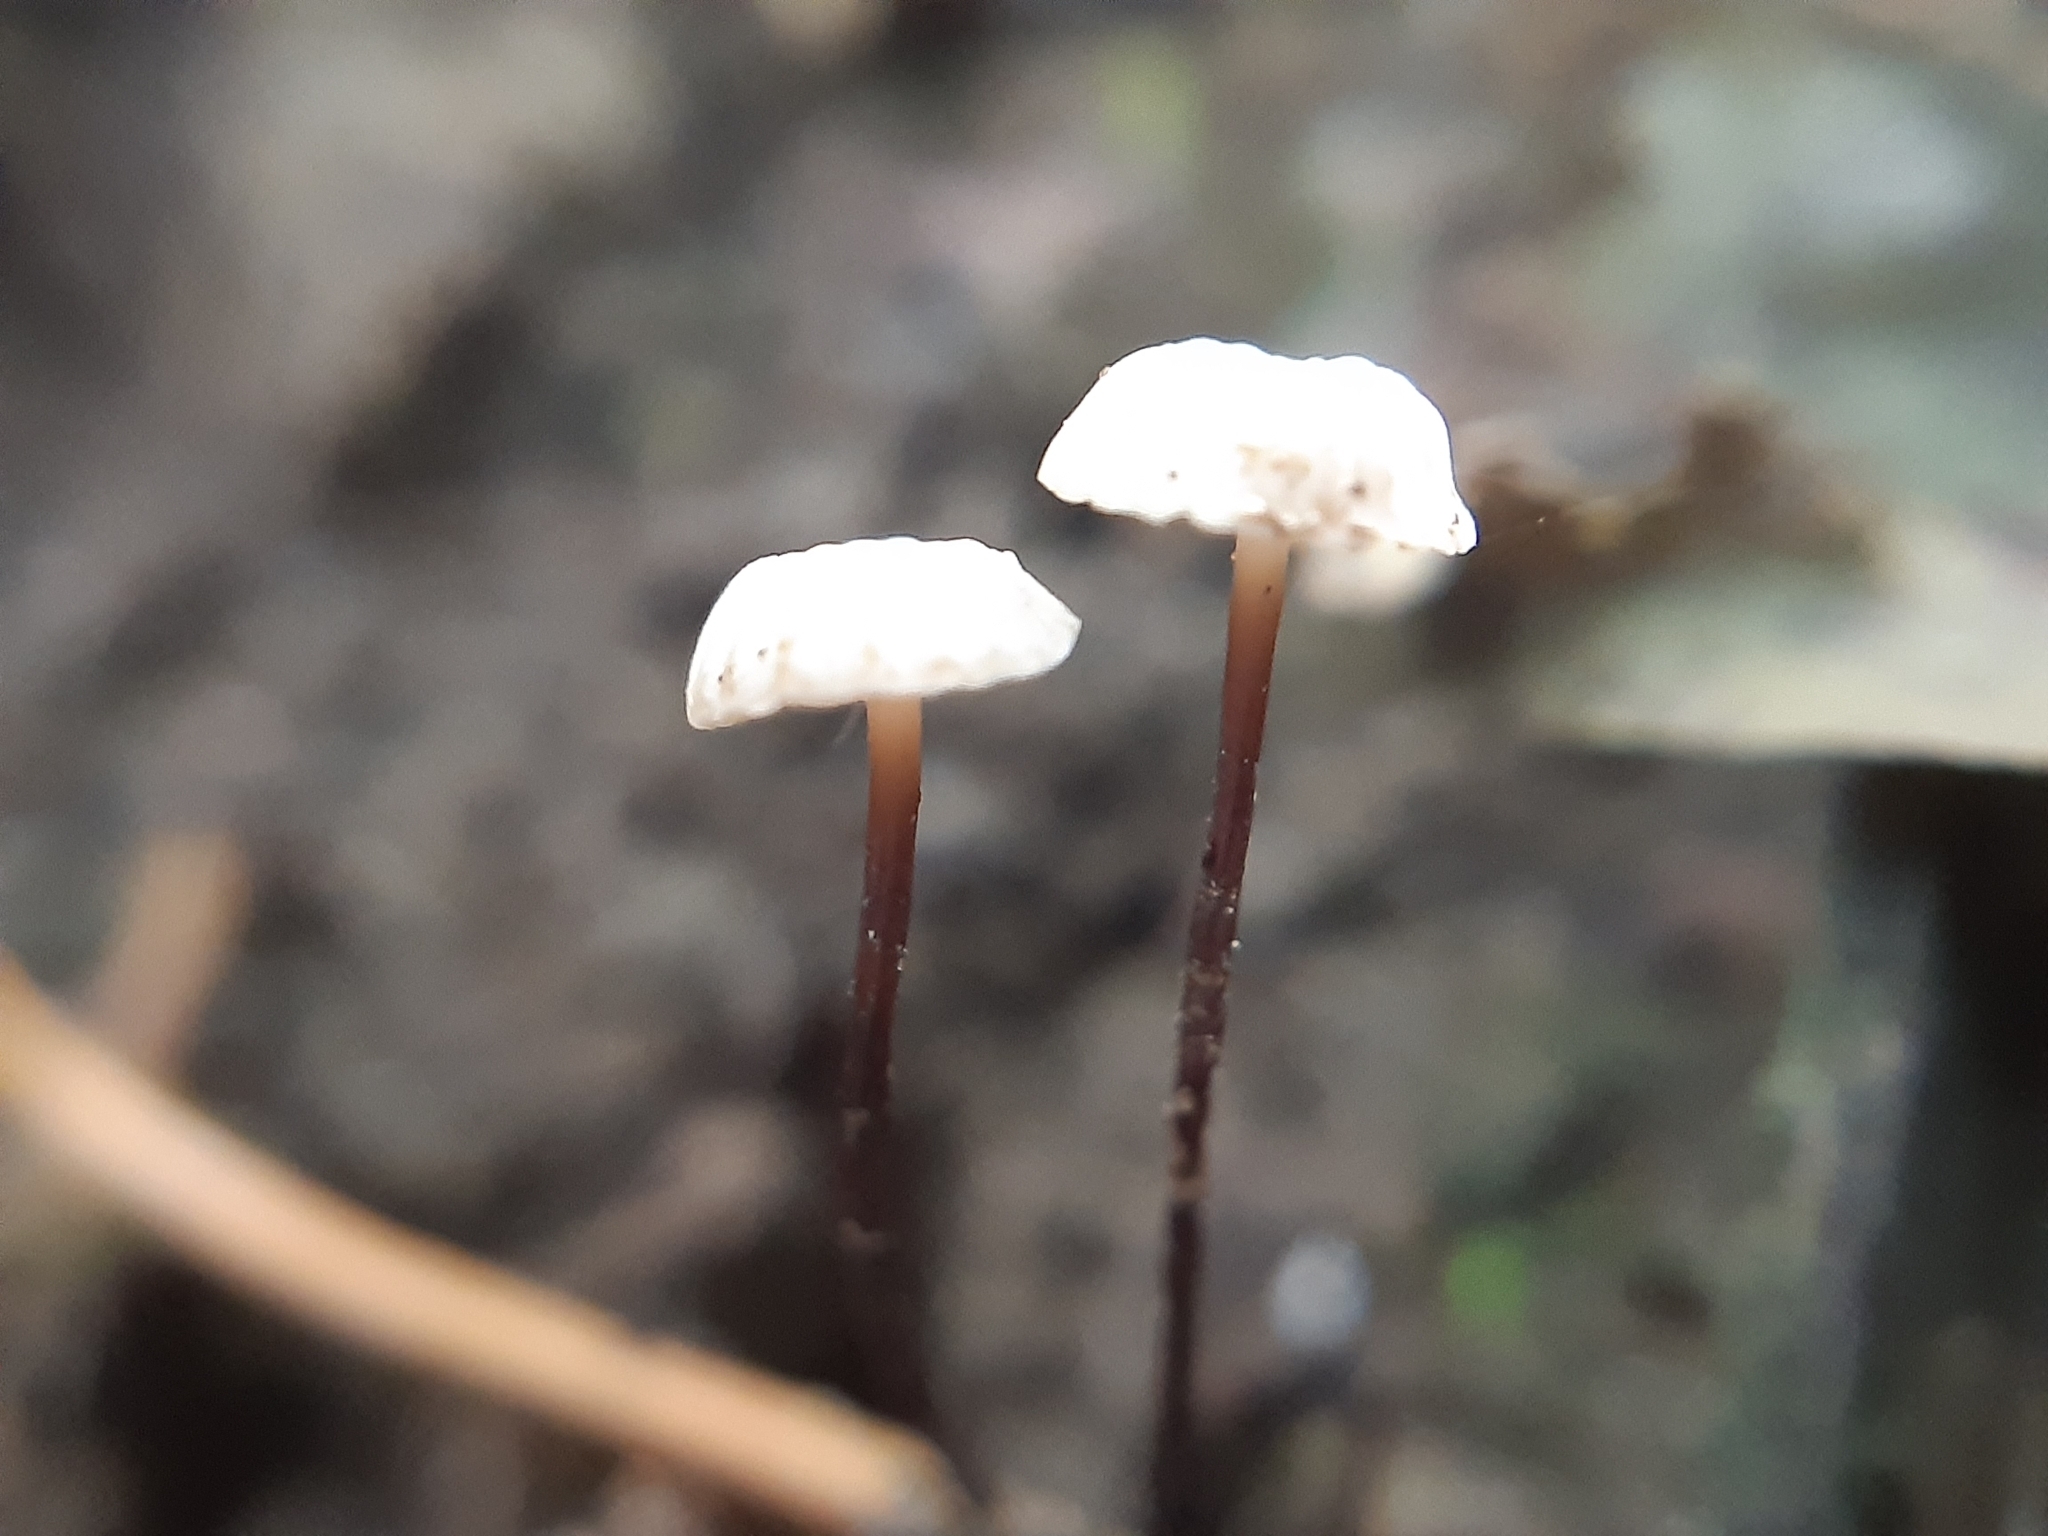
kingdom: Fungi
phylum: Basidiomycota
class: Agaricomycetes
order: Agaricales
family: Marasmiaceae
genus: Marasmius
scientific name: Marasmius rotula
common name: Collared parachute
